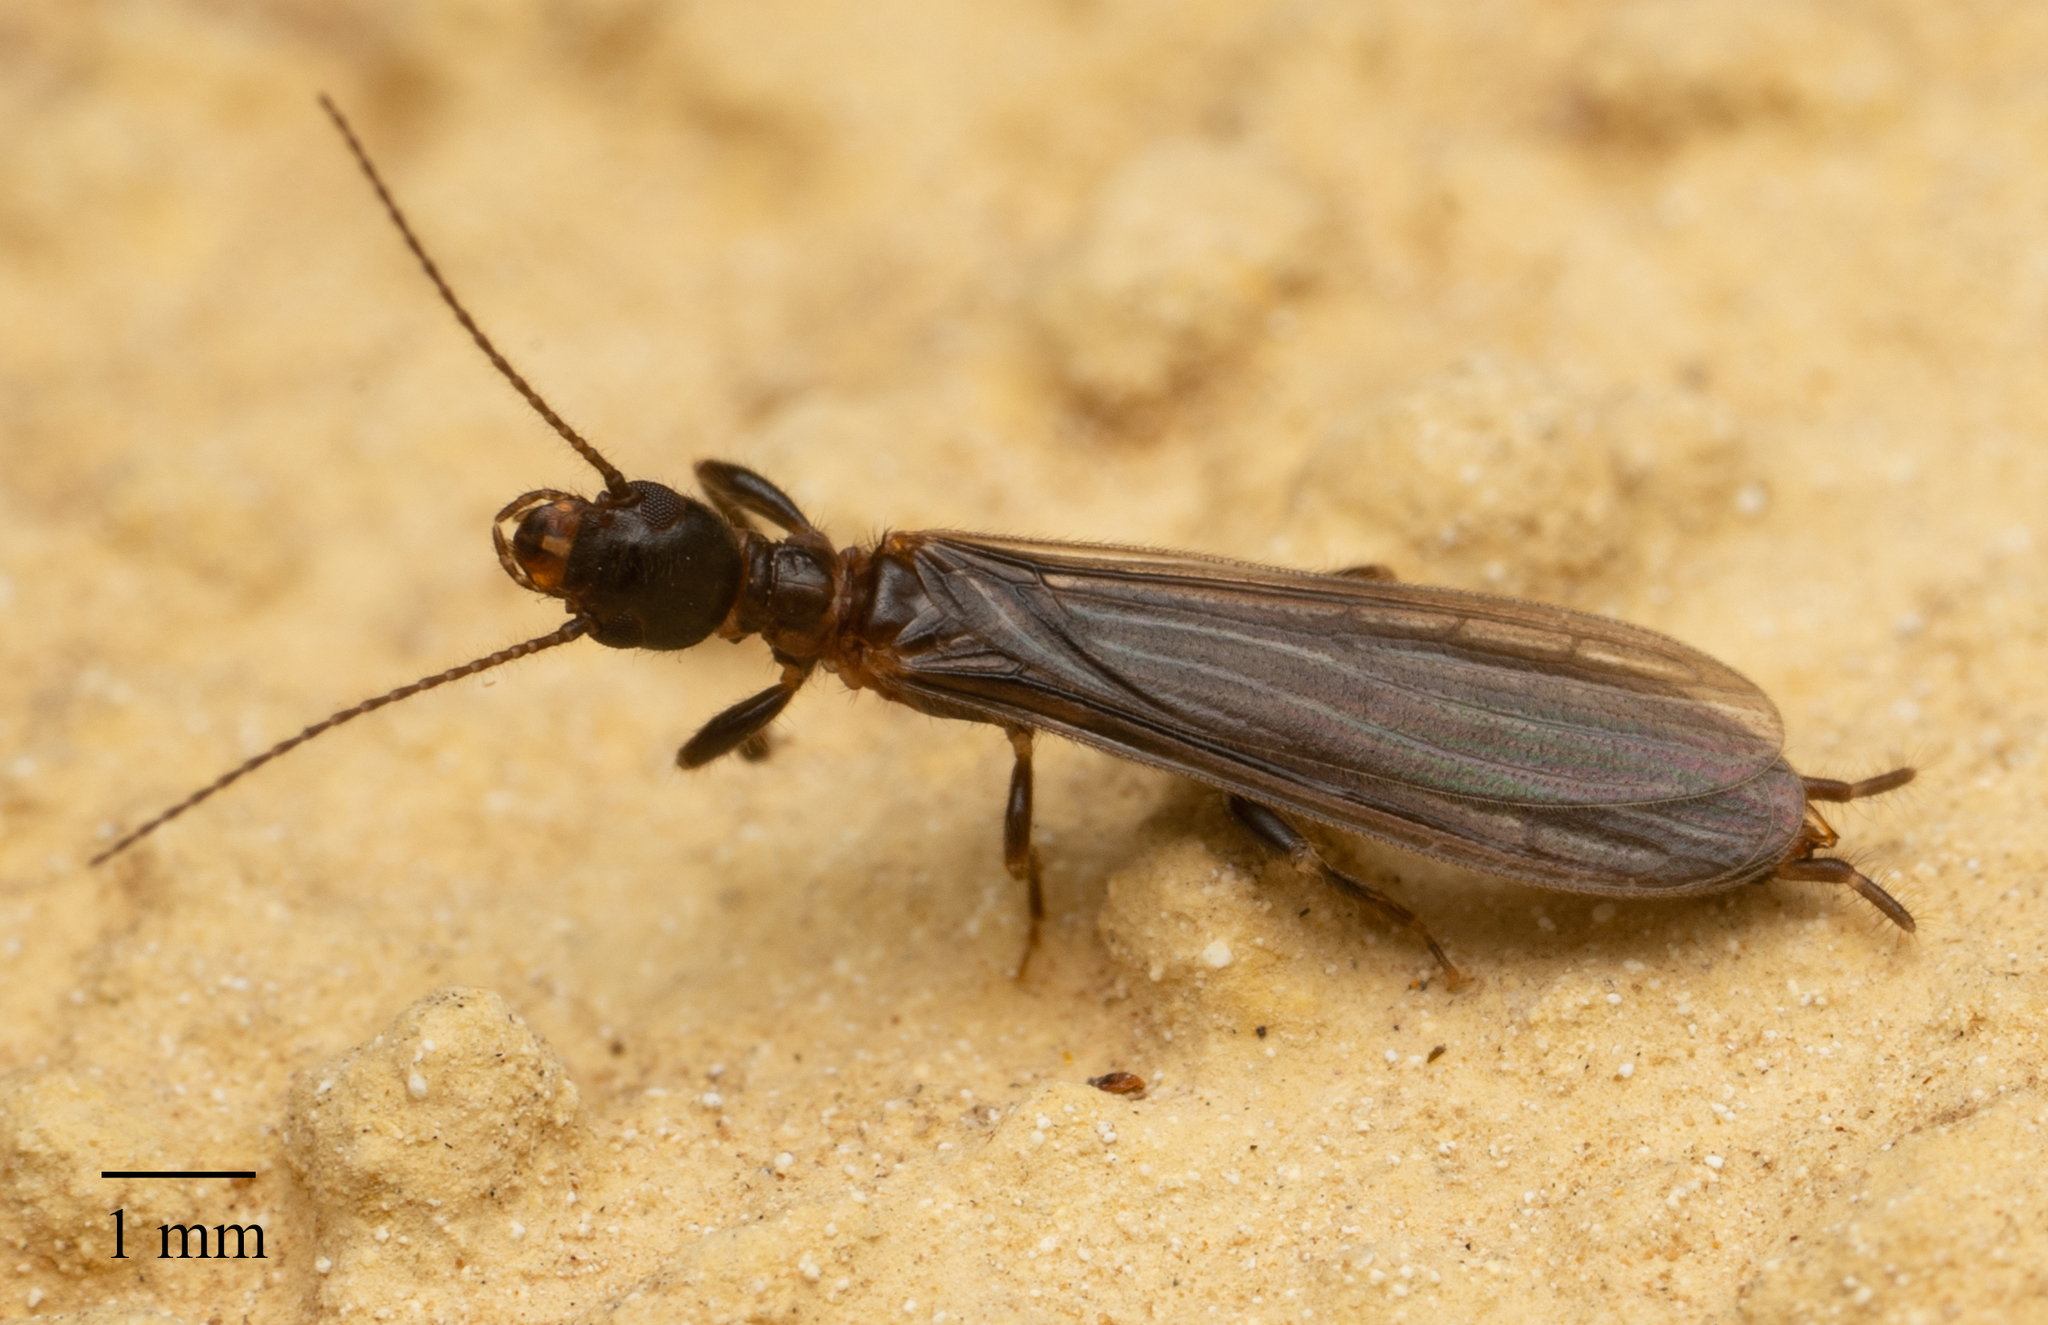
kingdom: Animalia
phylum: Arthropoda
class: Insecta
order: Embioptera
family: Oligotomidae
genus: Oligotoma
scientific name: Oligotoma nigra
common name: Black webspinner
